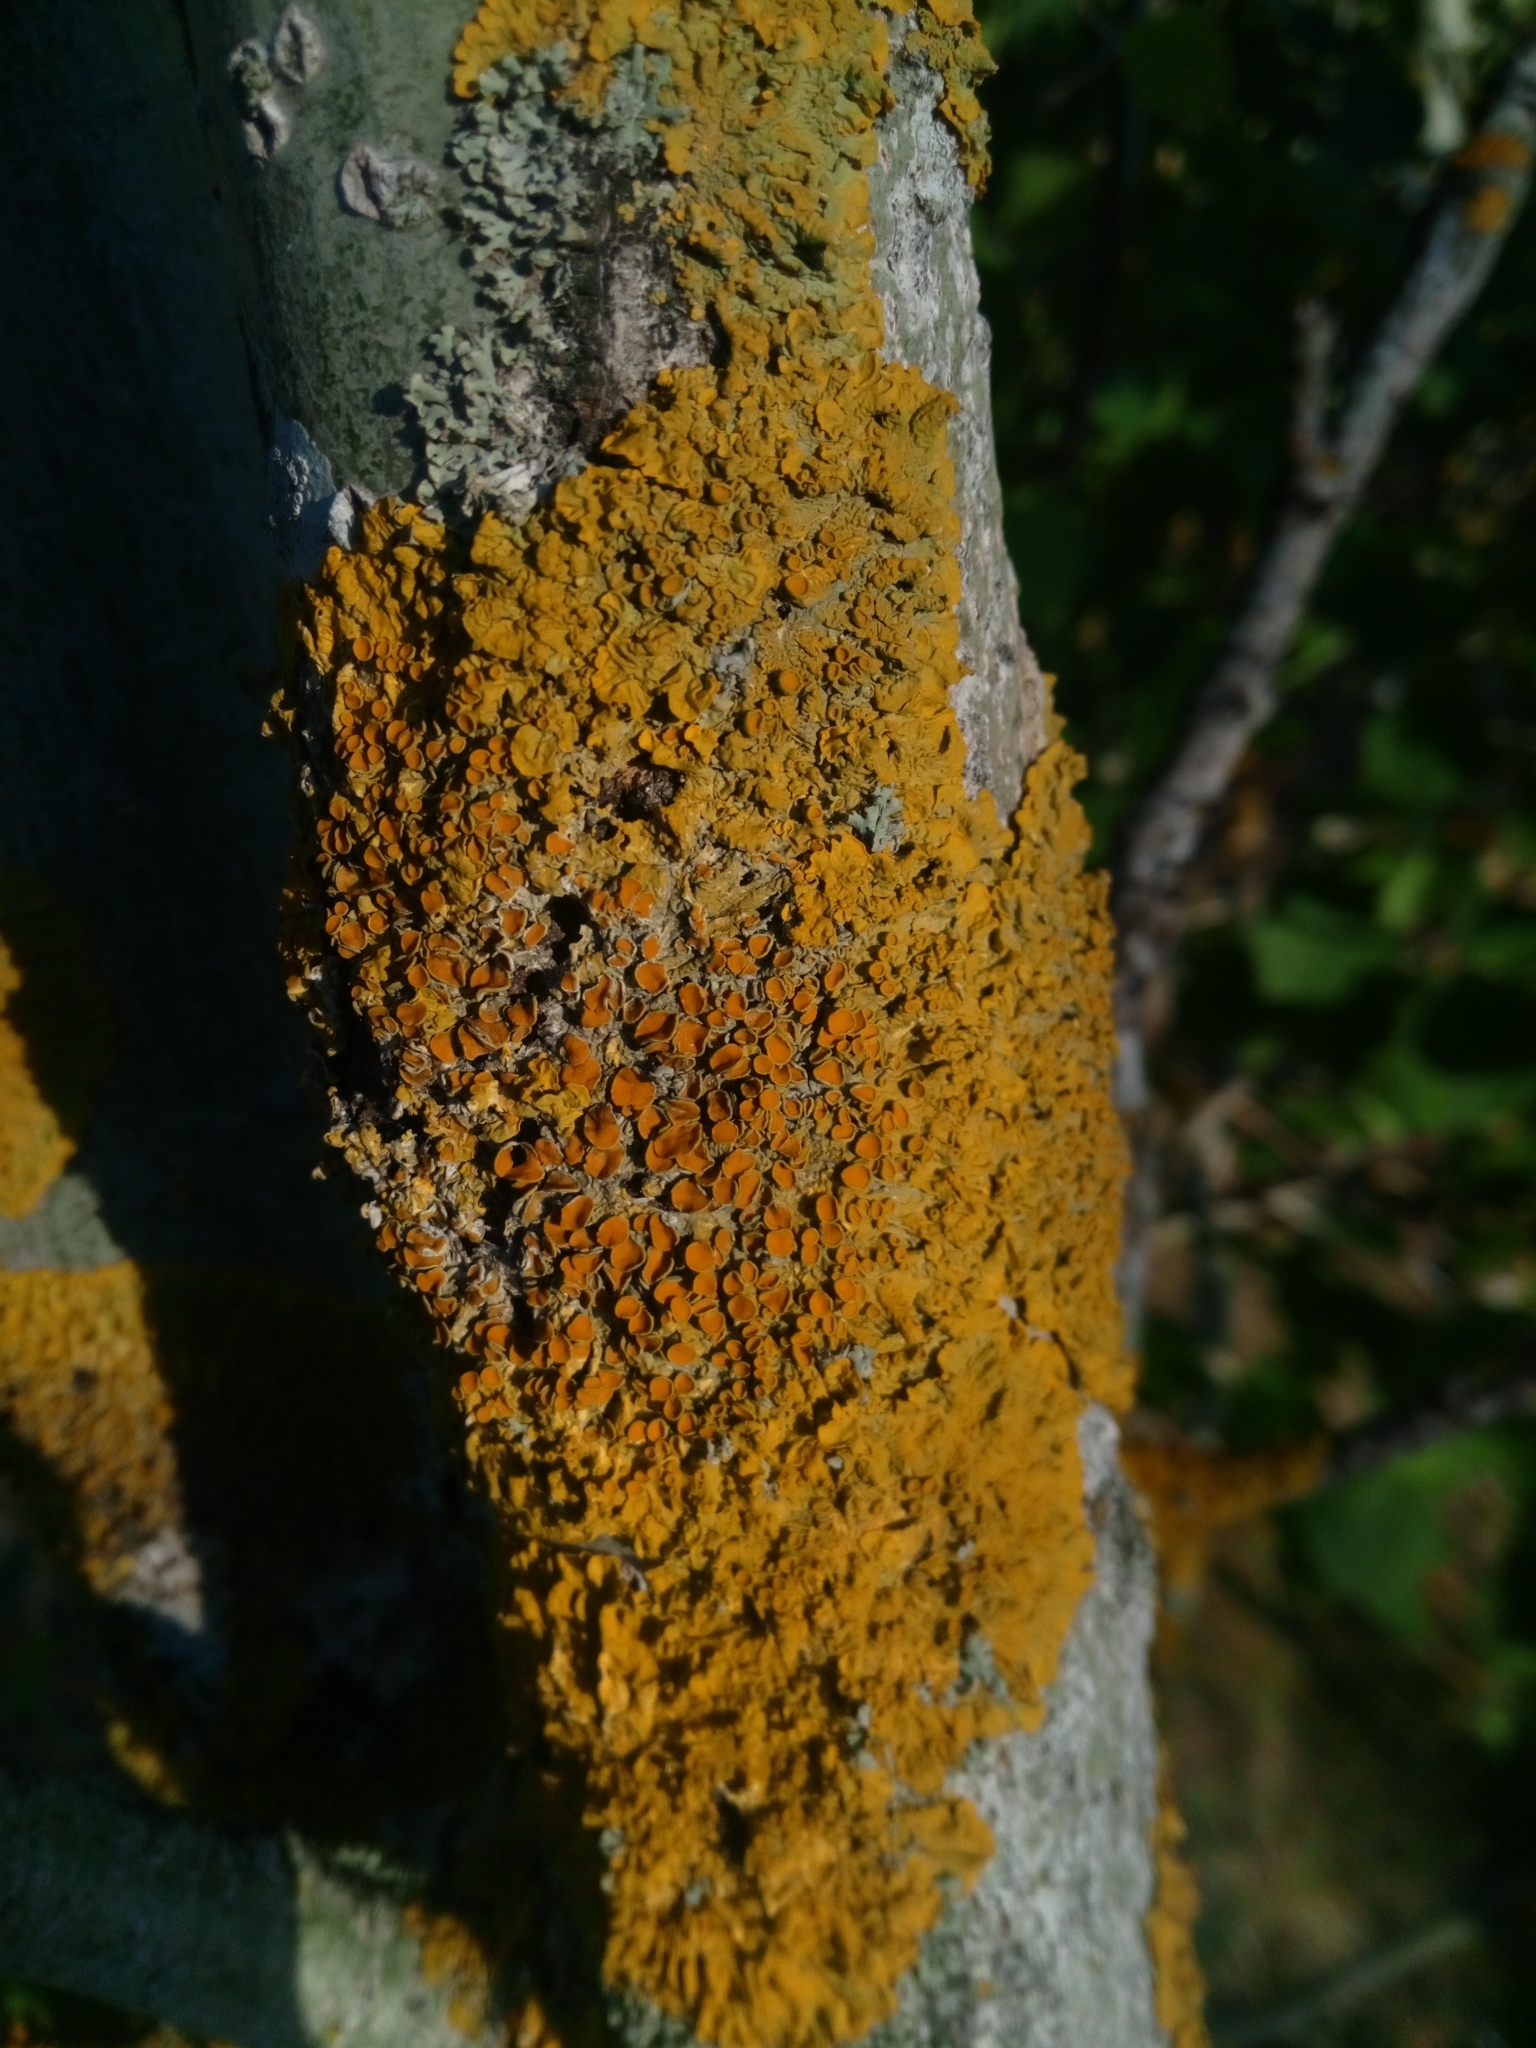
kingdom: Fungi
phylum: Ascomycota
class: Lecanoromycetes
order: Teloschistales
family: Teloschistaceae
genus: Xanthoria
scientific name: Xanthoria parietina
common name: Common orange lichen
